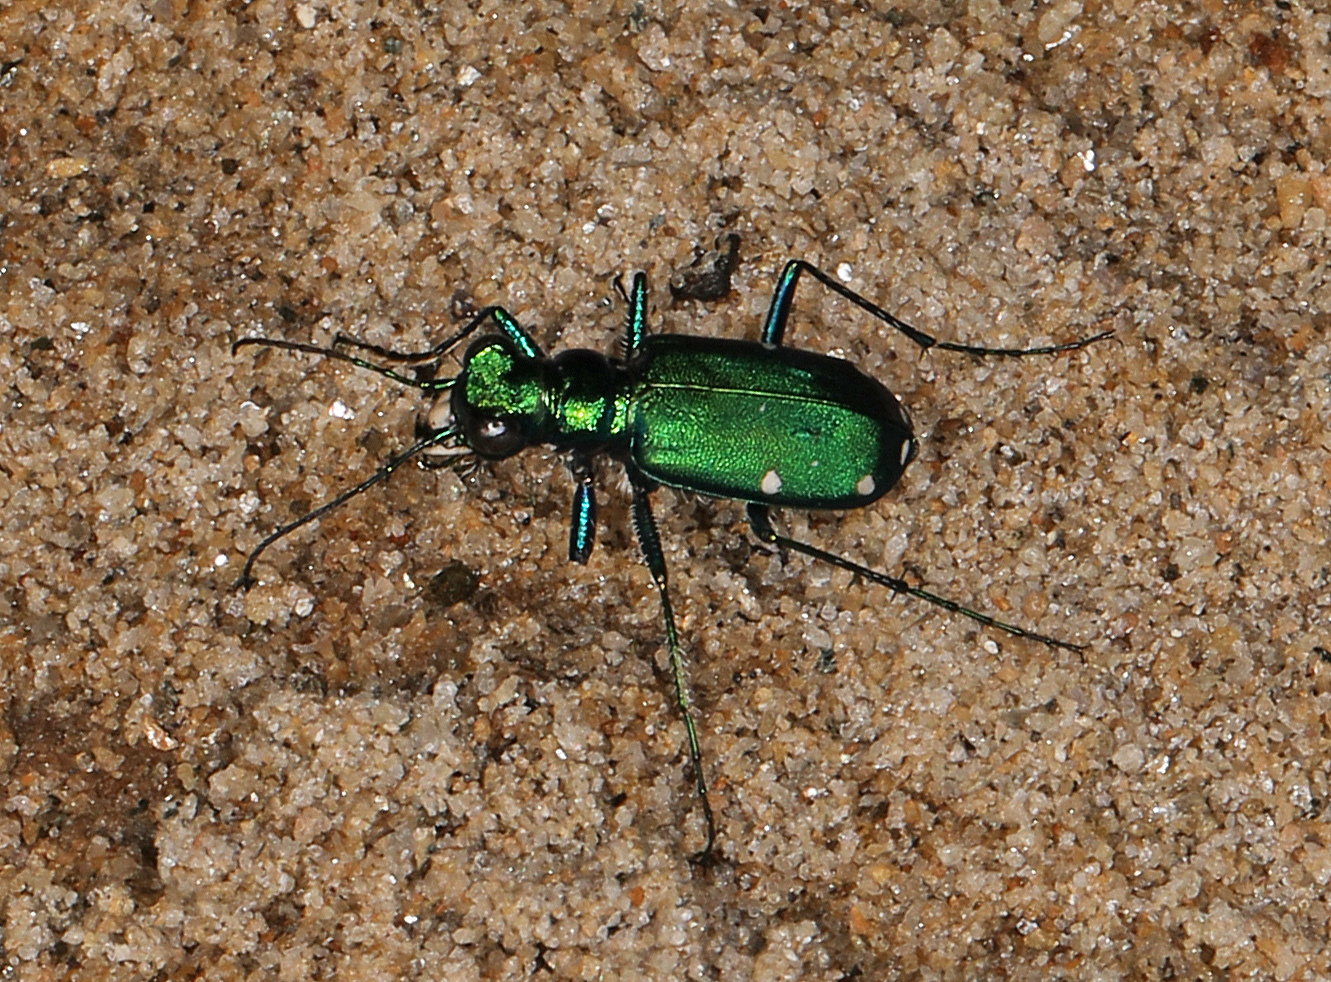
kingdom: Animalia
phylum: Arthropoda
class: Insecta
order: Coleoptera
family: Carabidae
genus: Cicindela
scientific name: Cicindela sexguttata
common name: Six-spotted tiger beetle
